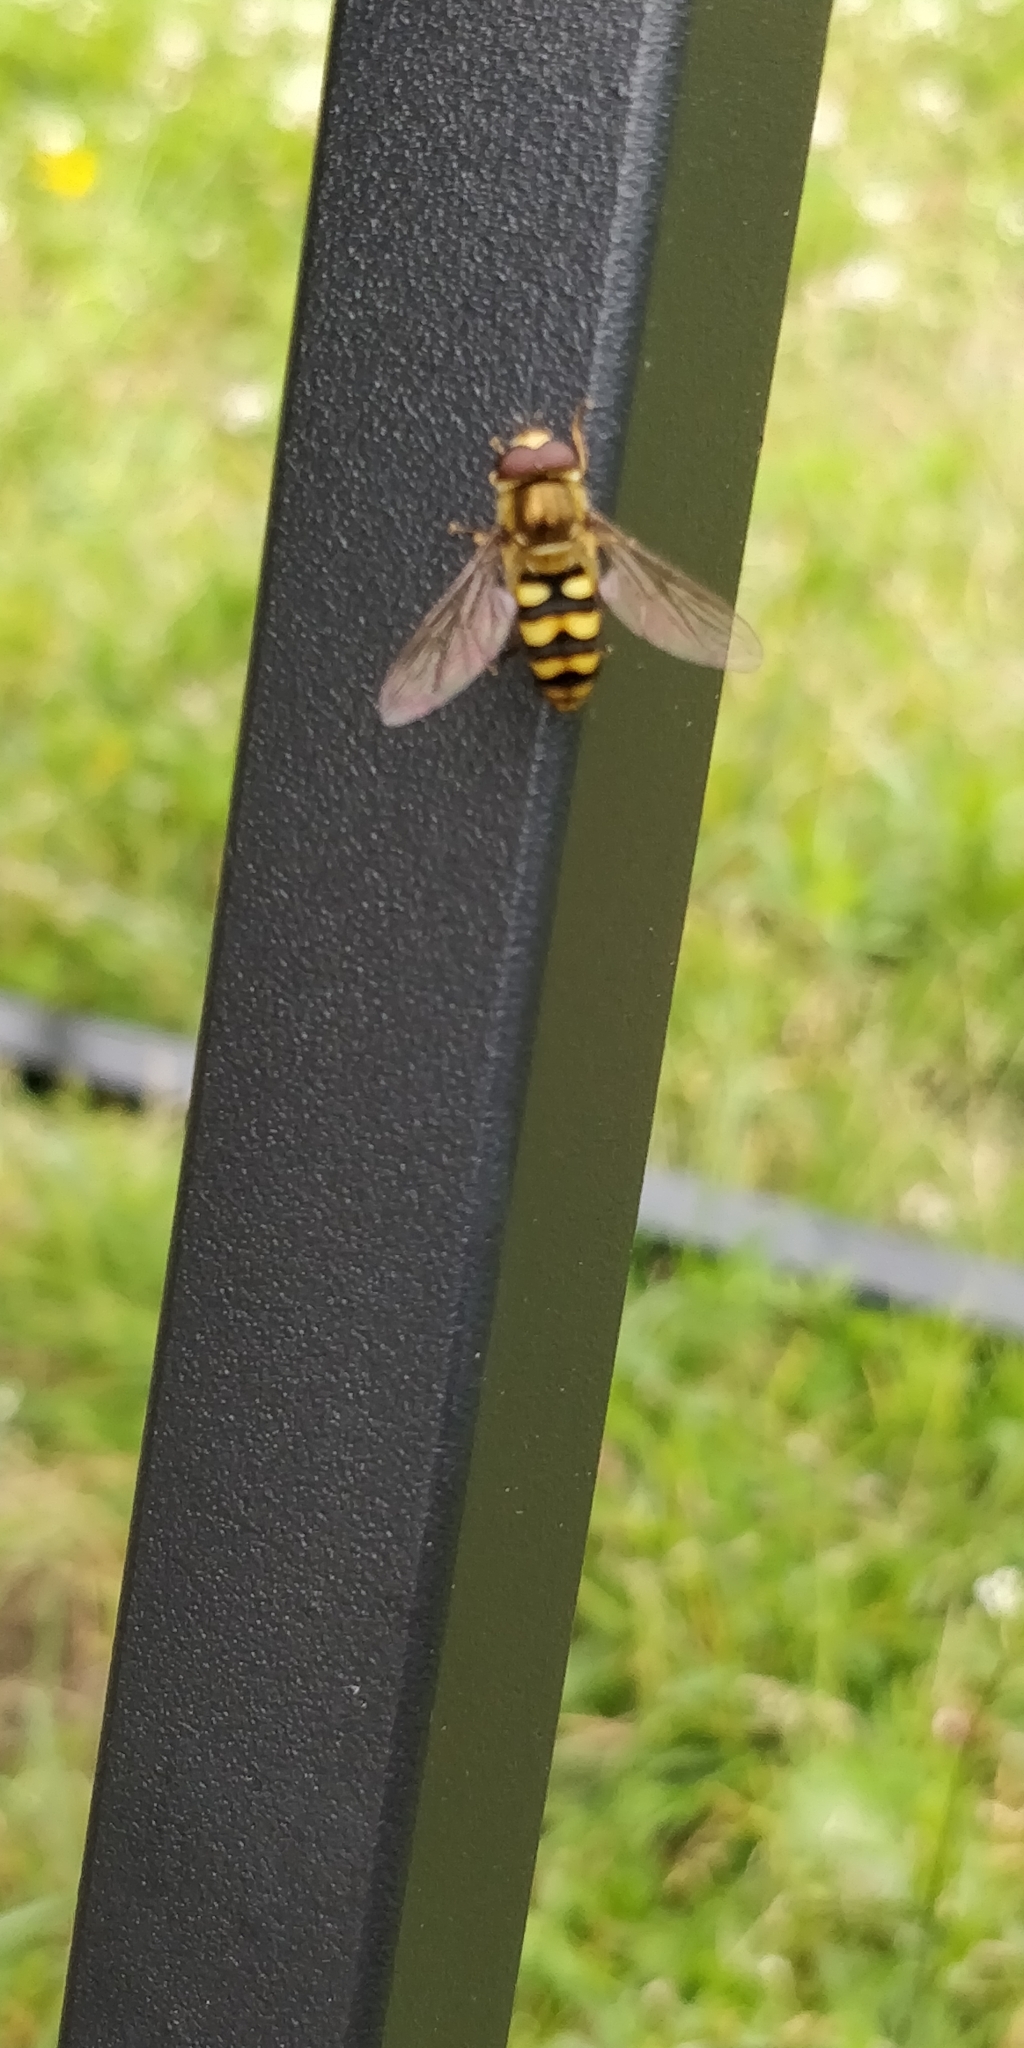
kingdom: Animalia
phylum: Arthropoda
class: Insecta
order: Diptera
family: Syrphidae
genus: Eupeodes
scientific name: Eupeodes fumipennis
